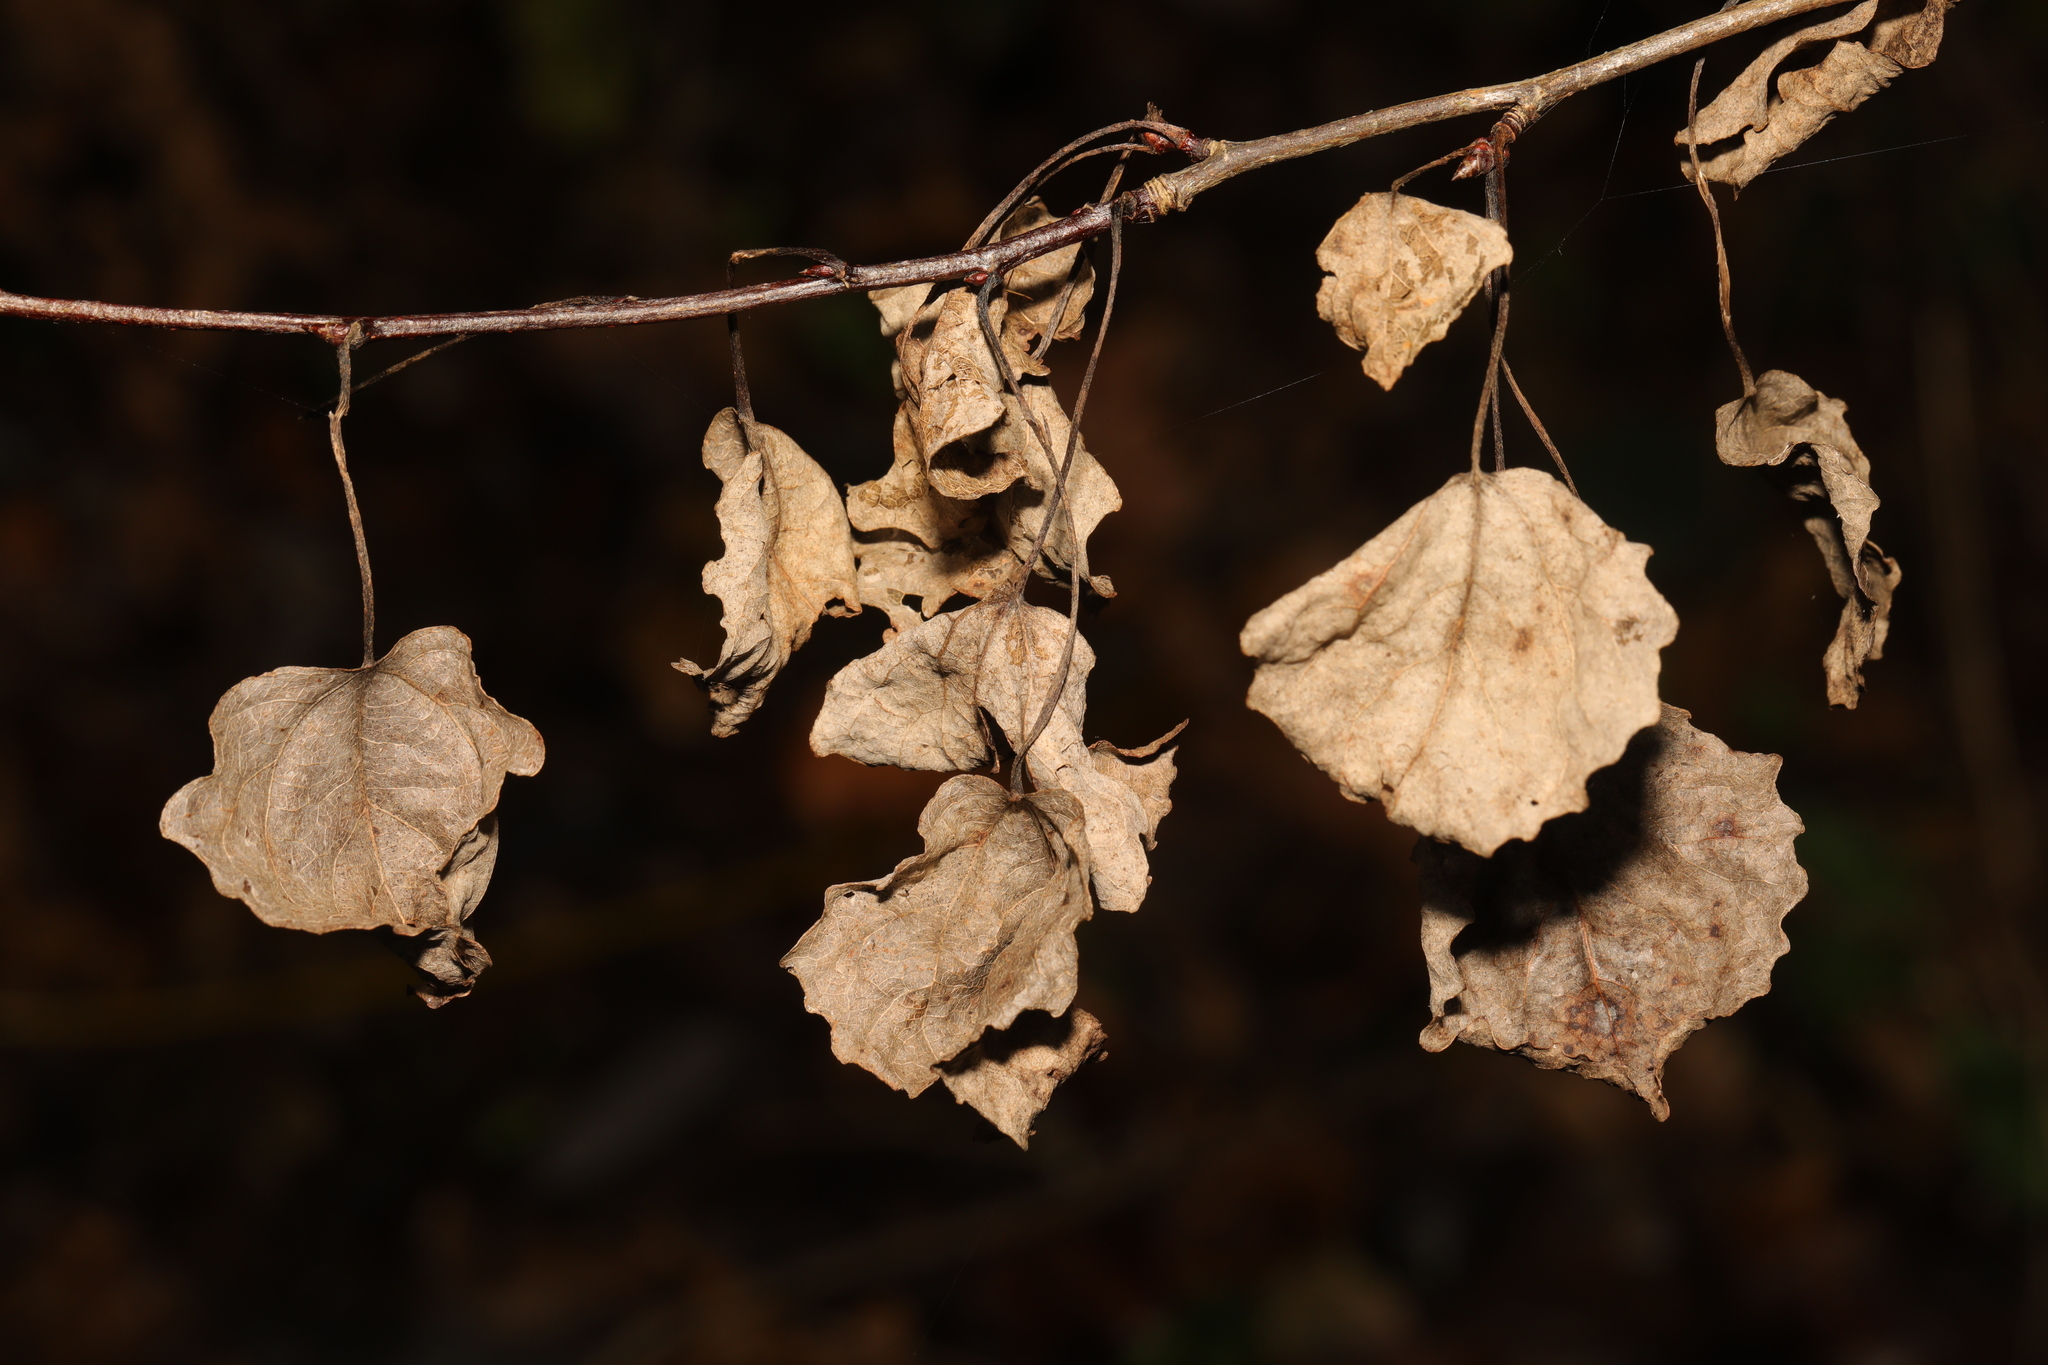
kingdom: Plantae
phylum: Tracheophyta
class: Magnoliopsida
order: Malpighiales
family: Salicaceae
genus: Populus
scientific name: Populus tremula
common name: European aspen
